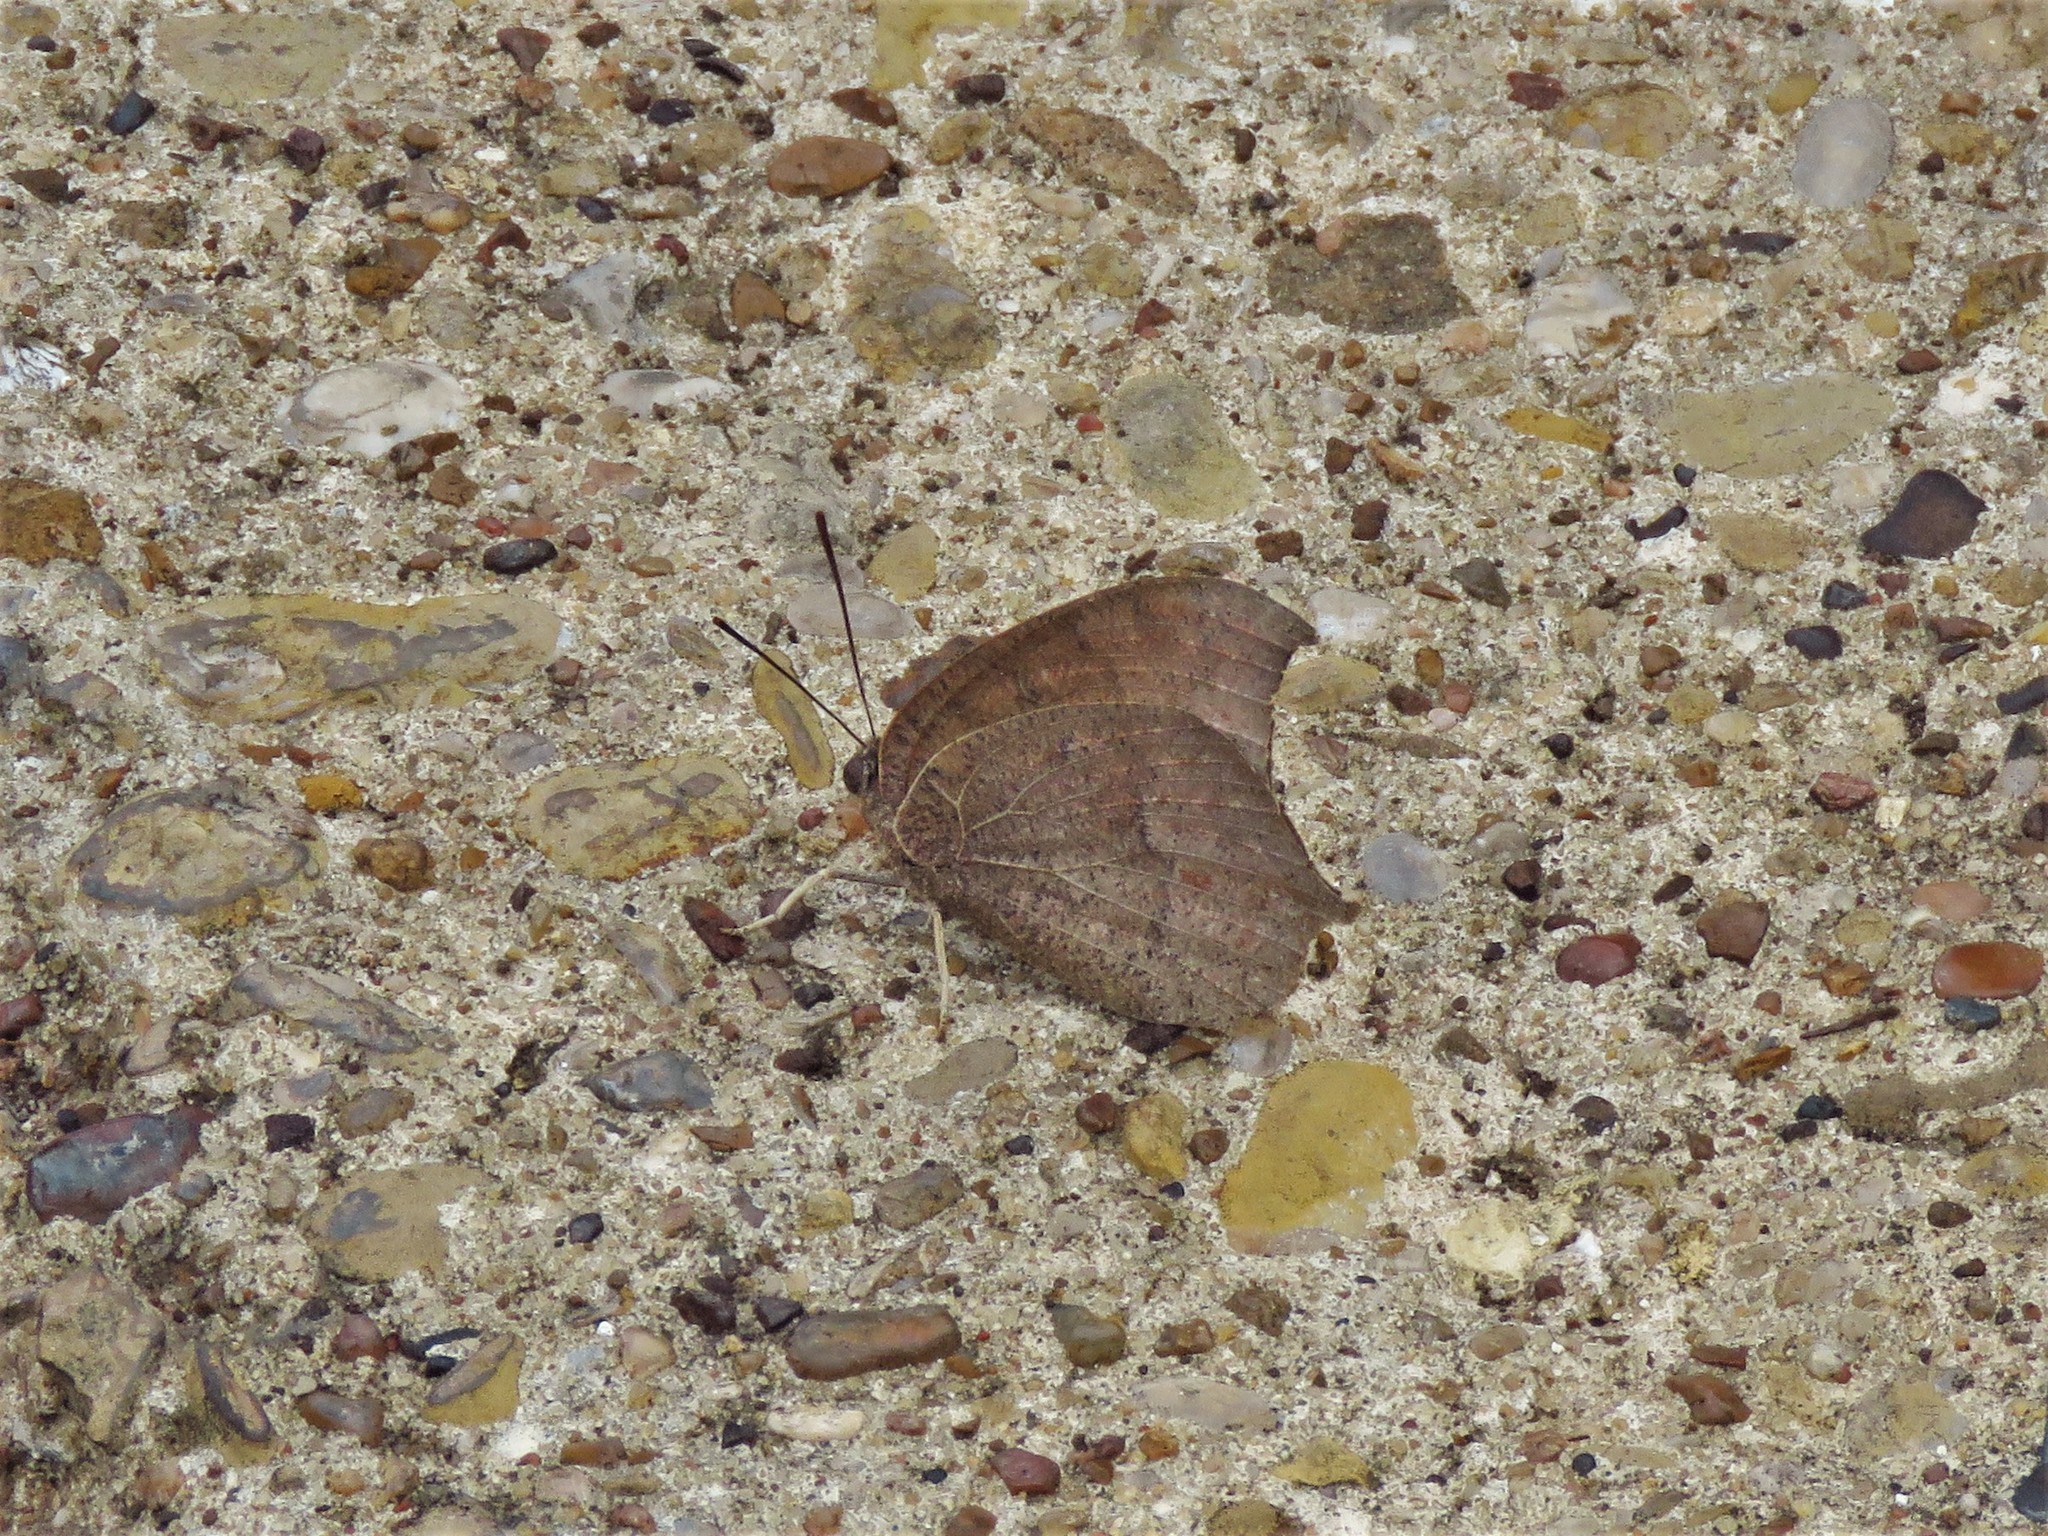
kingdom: Animalia
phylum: Arthropoda
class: Insecta
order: Lepidoptera
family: Nymphalidae
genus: Anaea
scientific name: Anaea andria
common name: Goatweed leafwing
